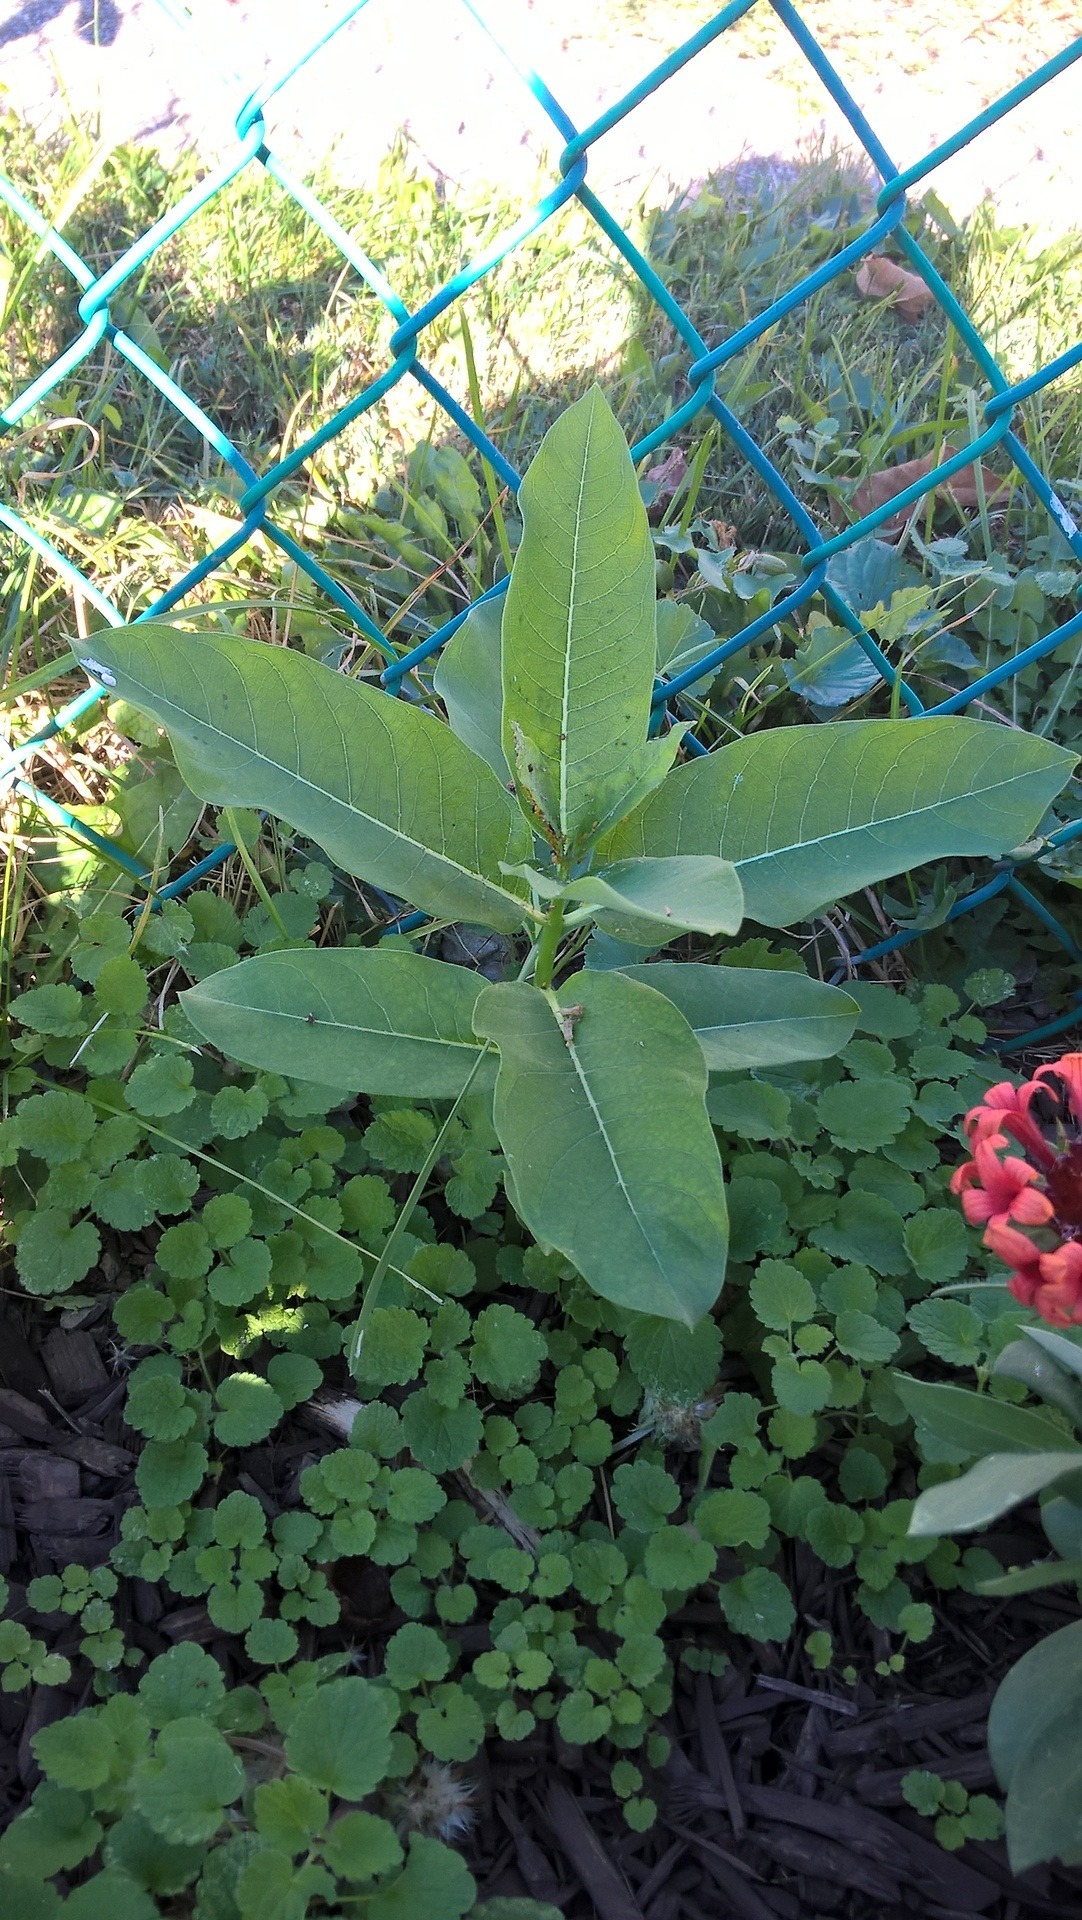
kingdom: Plantae
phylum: Tracheophyta
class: Magnoliopsida
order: Gentianales
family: Apocynaceae
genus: Asclepias
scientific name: Asclepias syriaca
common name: Common milkweed
